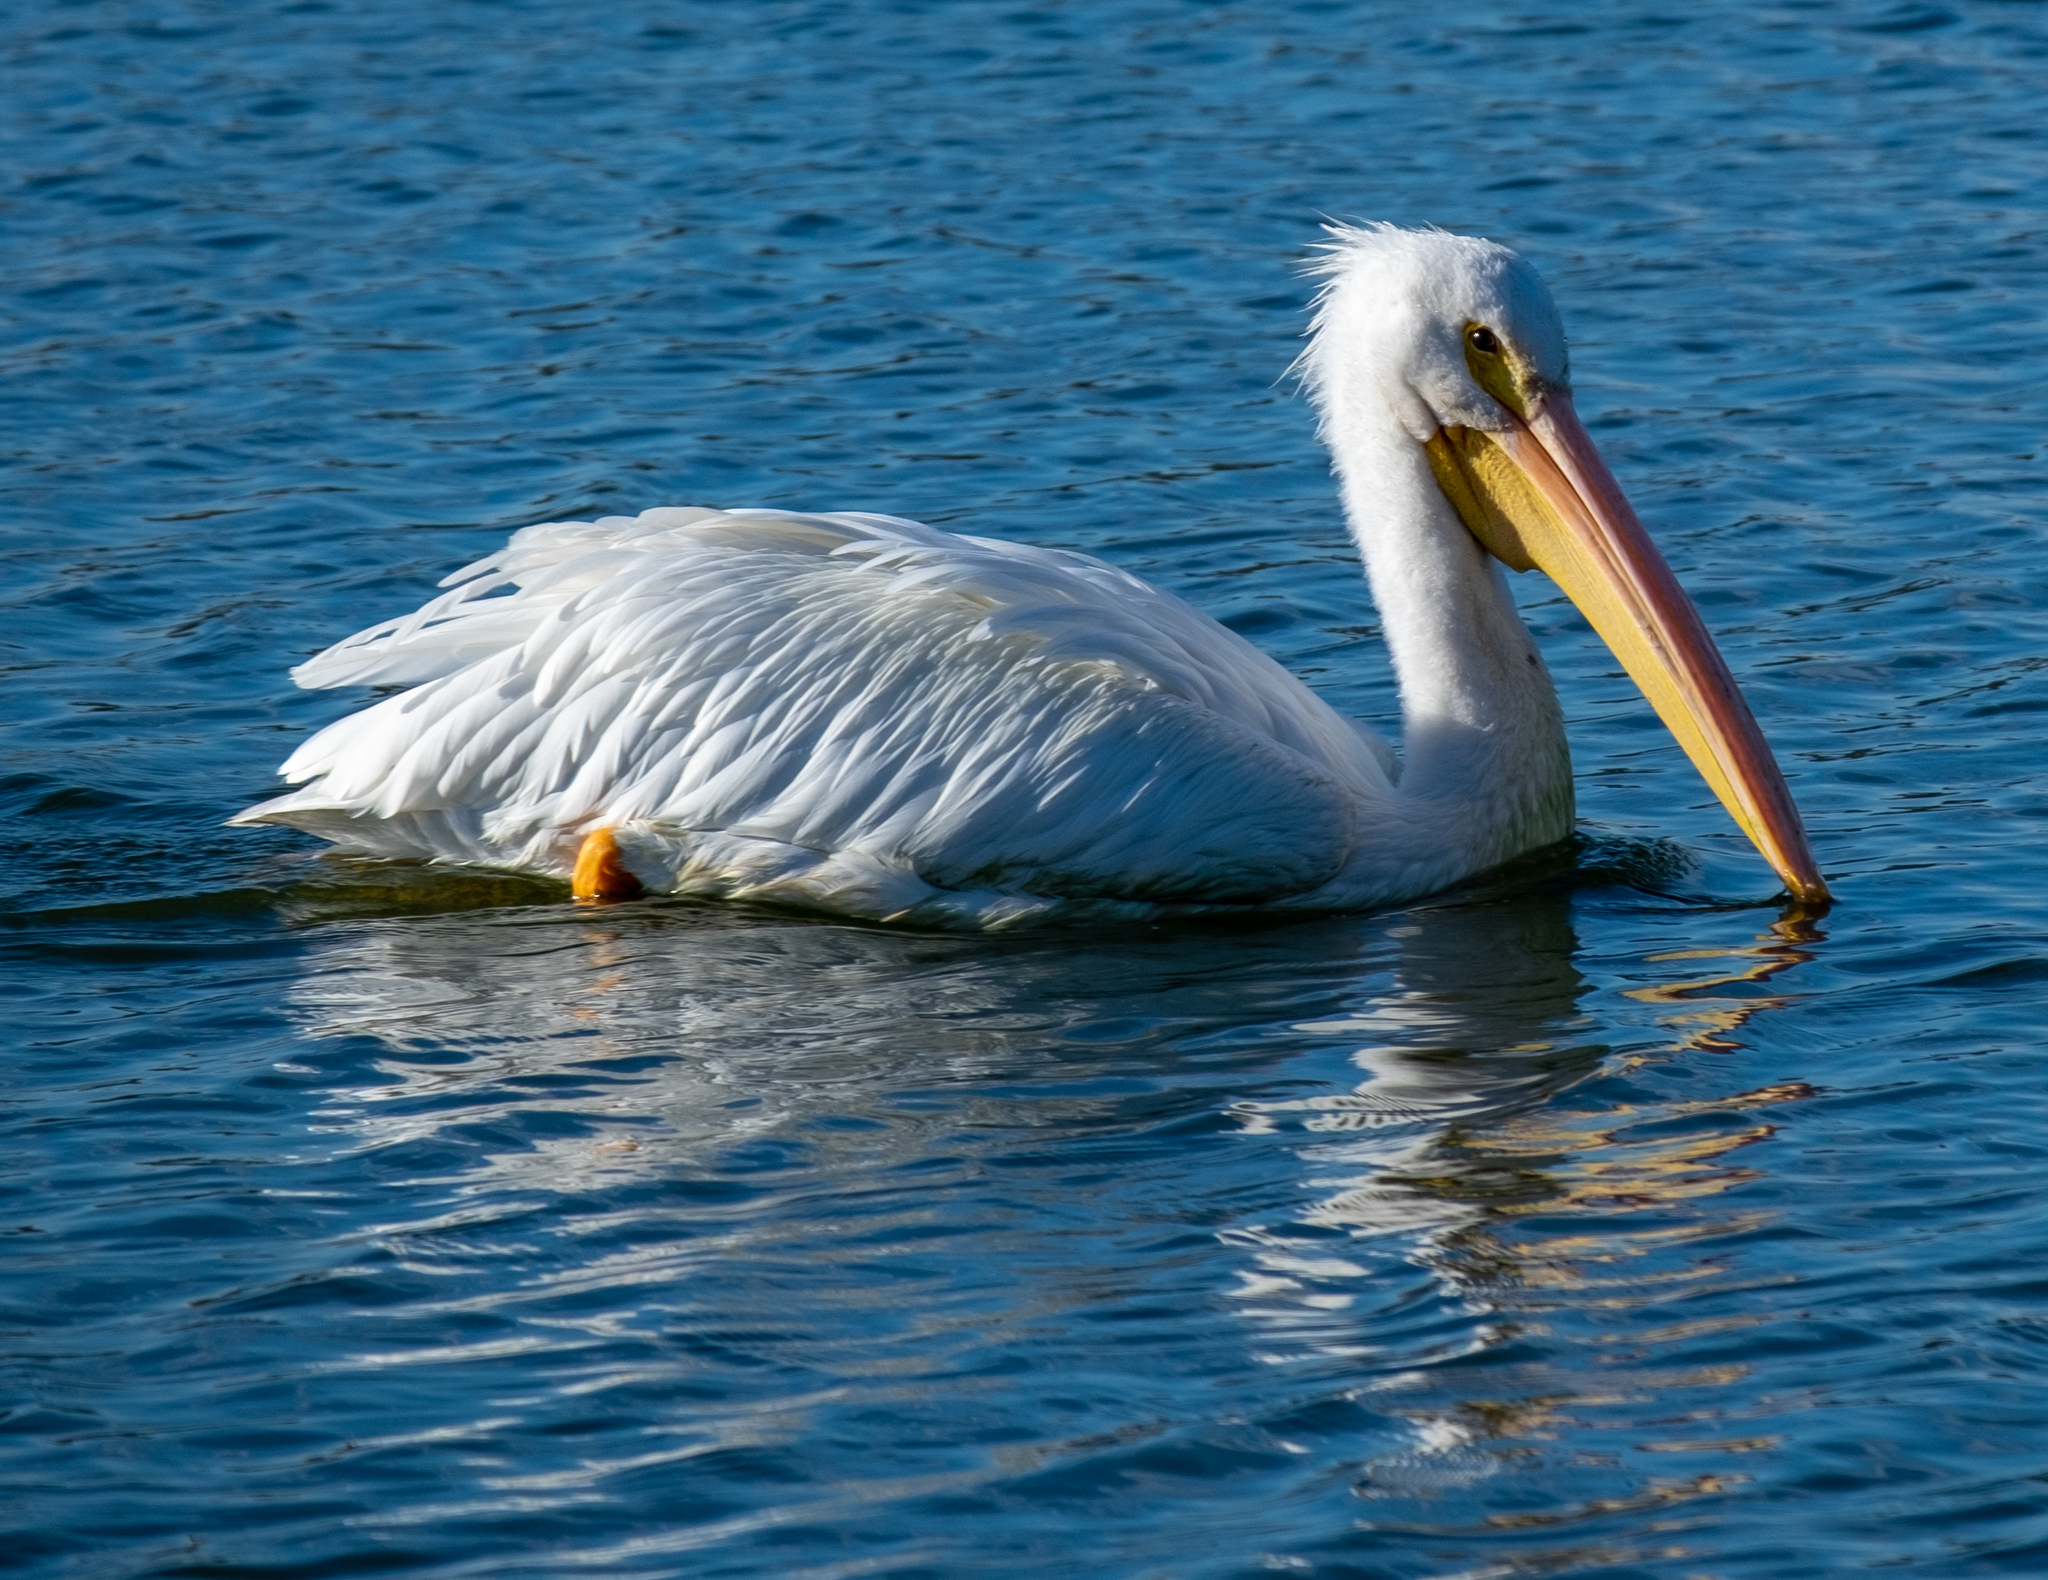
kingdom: Animalia
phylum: Chordata
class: Aves
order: Pelecaniformes
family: Pelecanidae
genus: Pelecanus
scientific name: Pelecanus erythrorhynchos
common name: American white pelican
